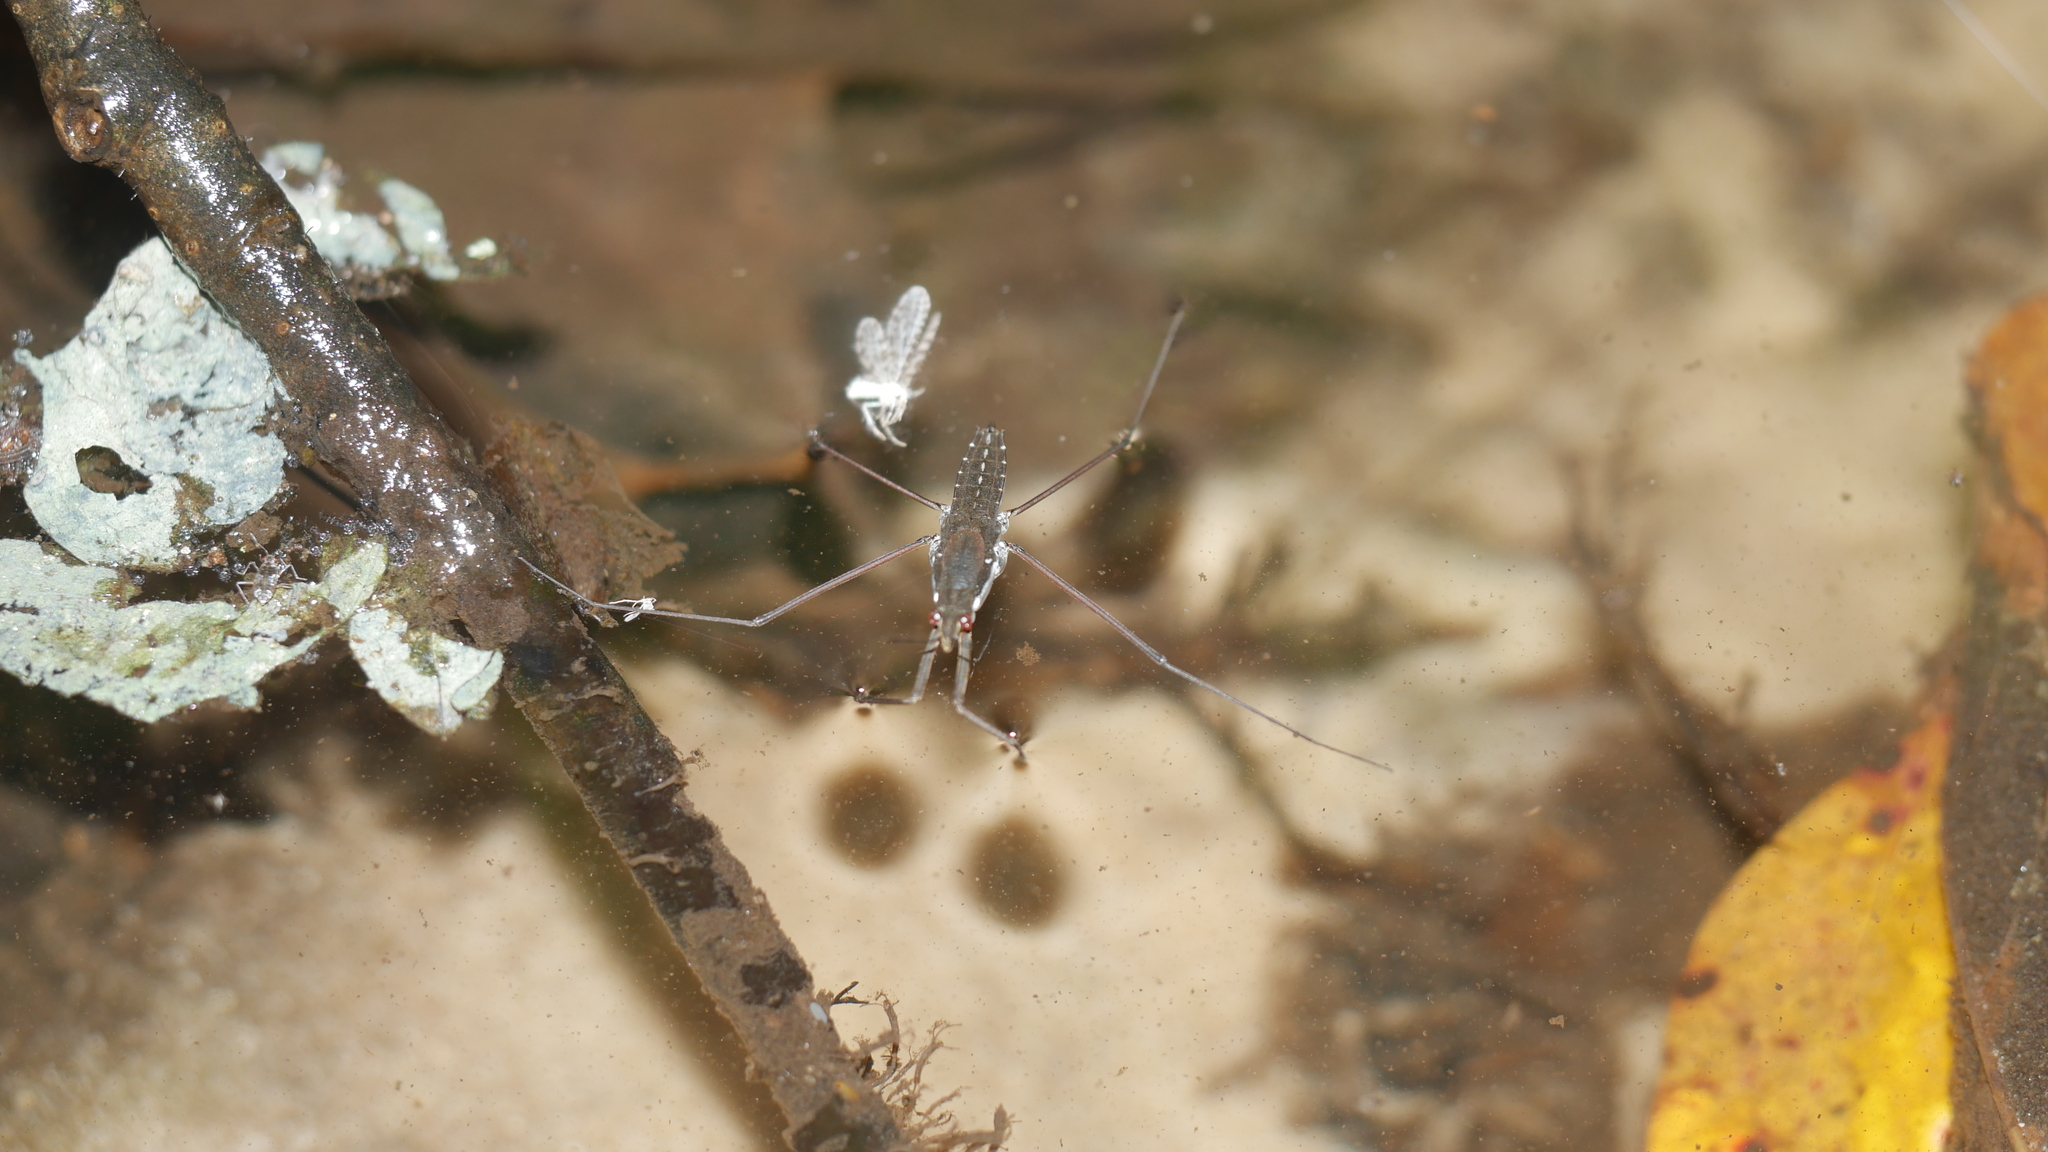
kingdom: Animalia
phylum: Arthropoda
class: Insecta
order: Hemiptera
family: Gerridae
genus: Aquarius
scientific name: Aquarius
